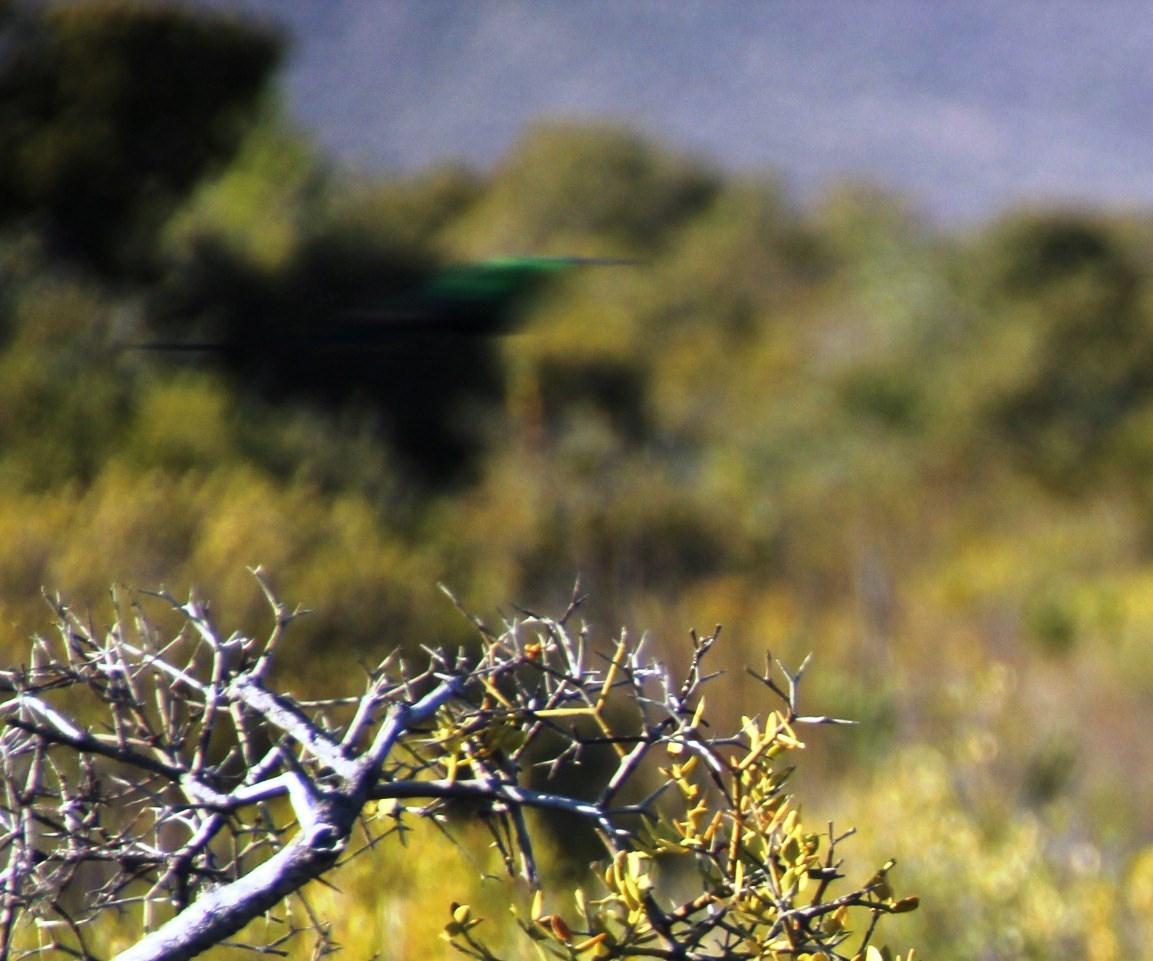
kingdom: Animalia
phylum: Chordata
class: Aves
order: Passeriformes
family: Nectariniidae
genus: Nectarinia
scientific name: Nectarinia famosa
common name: Malachite sunbird
